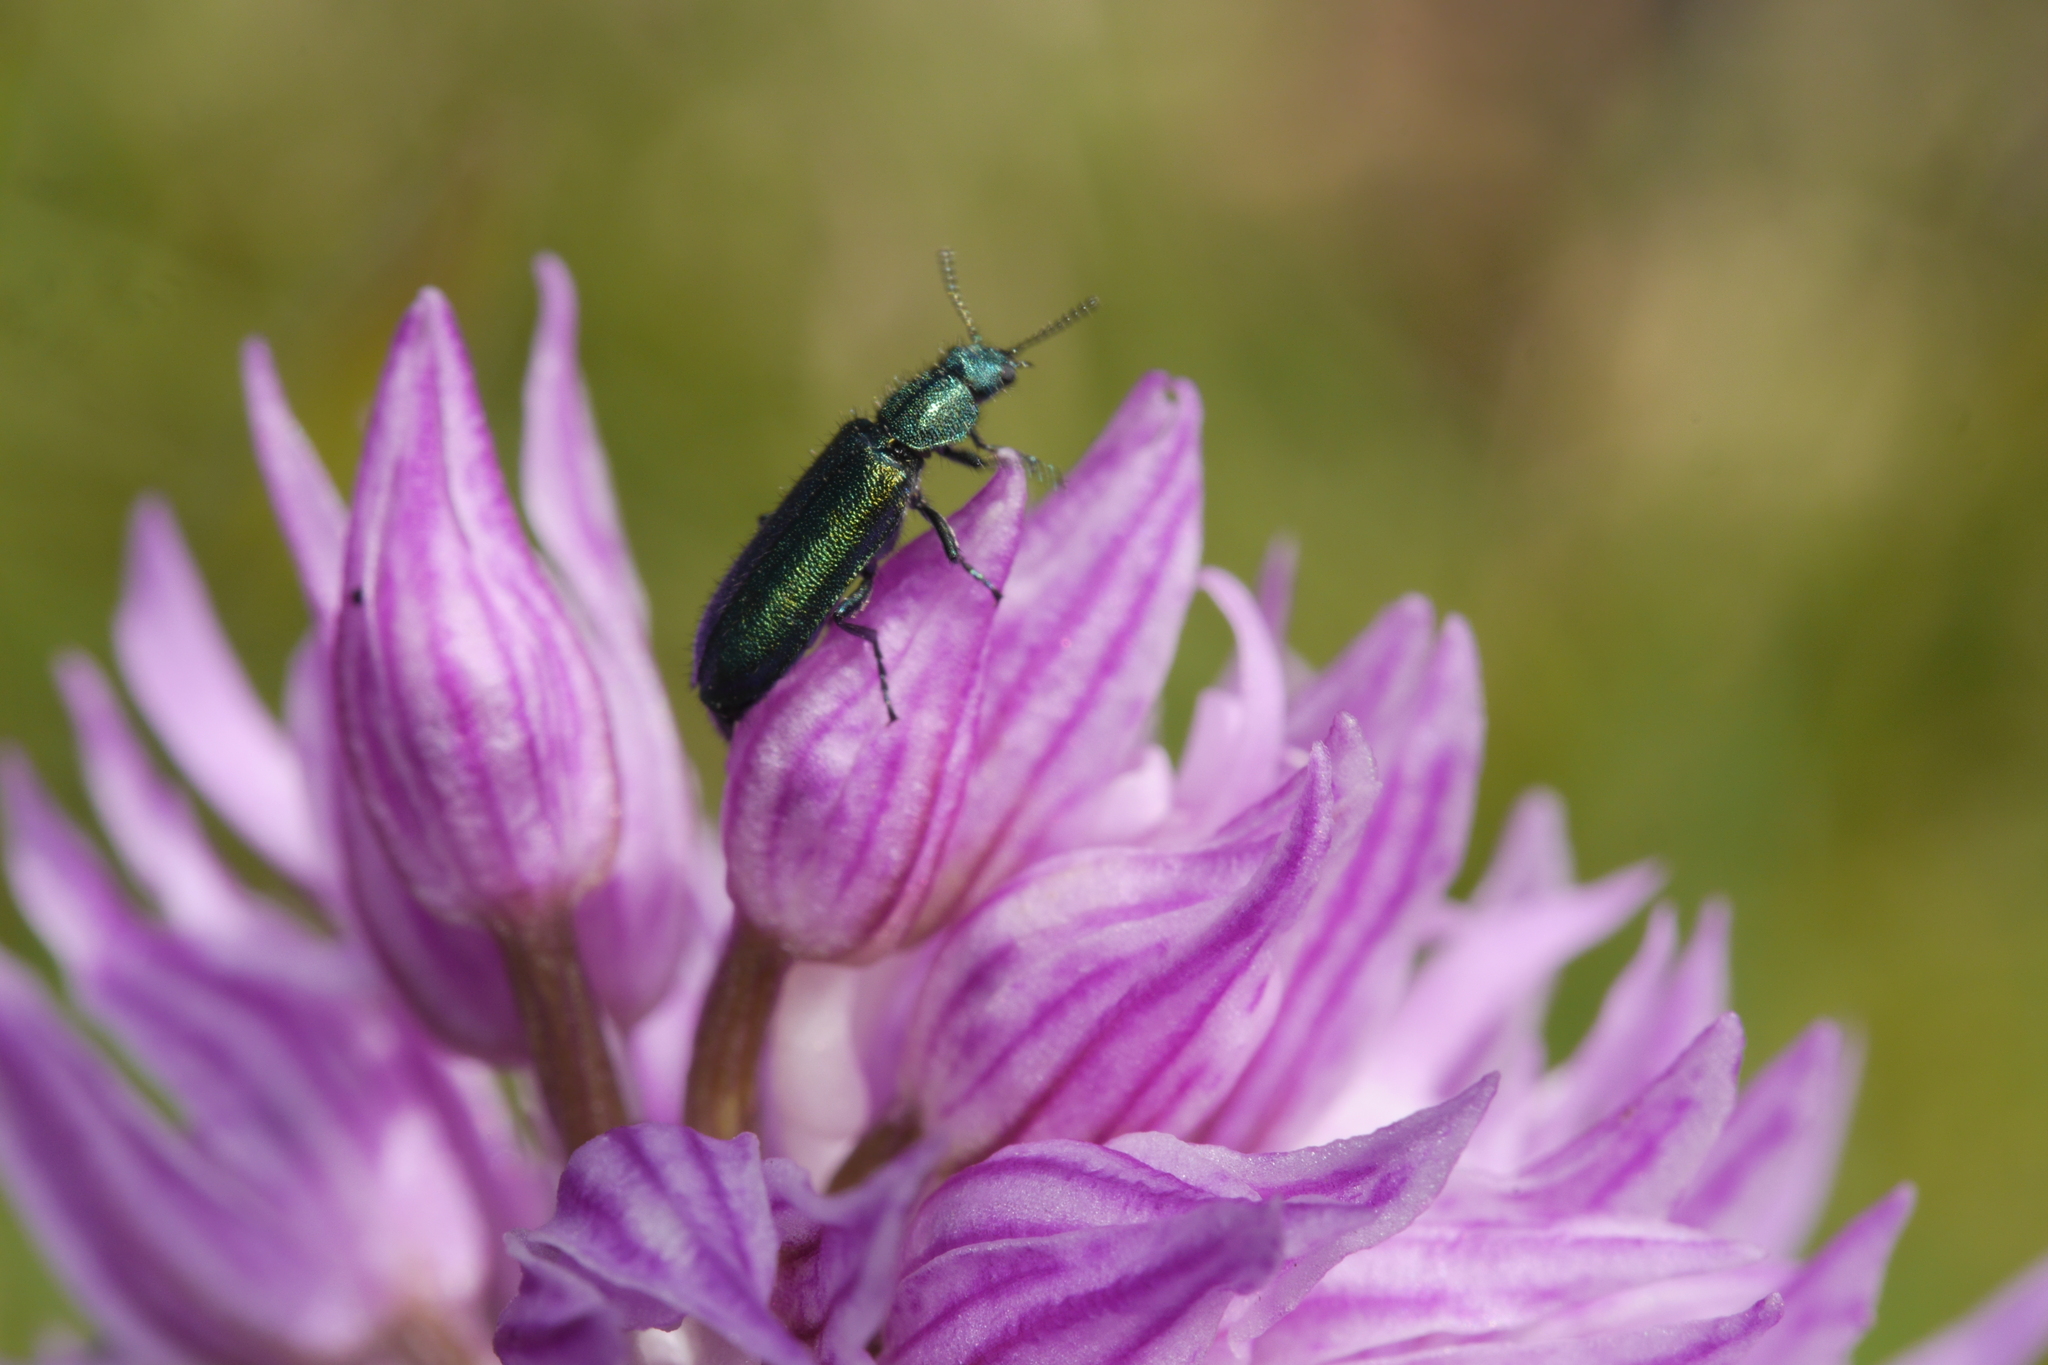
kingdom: Animalia
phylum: Arthropoda
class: Insecta
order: Coleoptera
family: Dasytidae
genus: Psilothrix
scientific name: Psilothrix viridicoerulea
